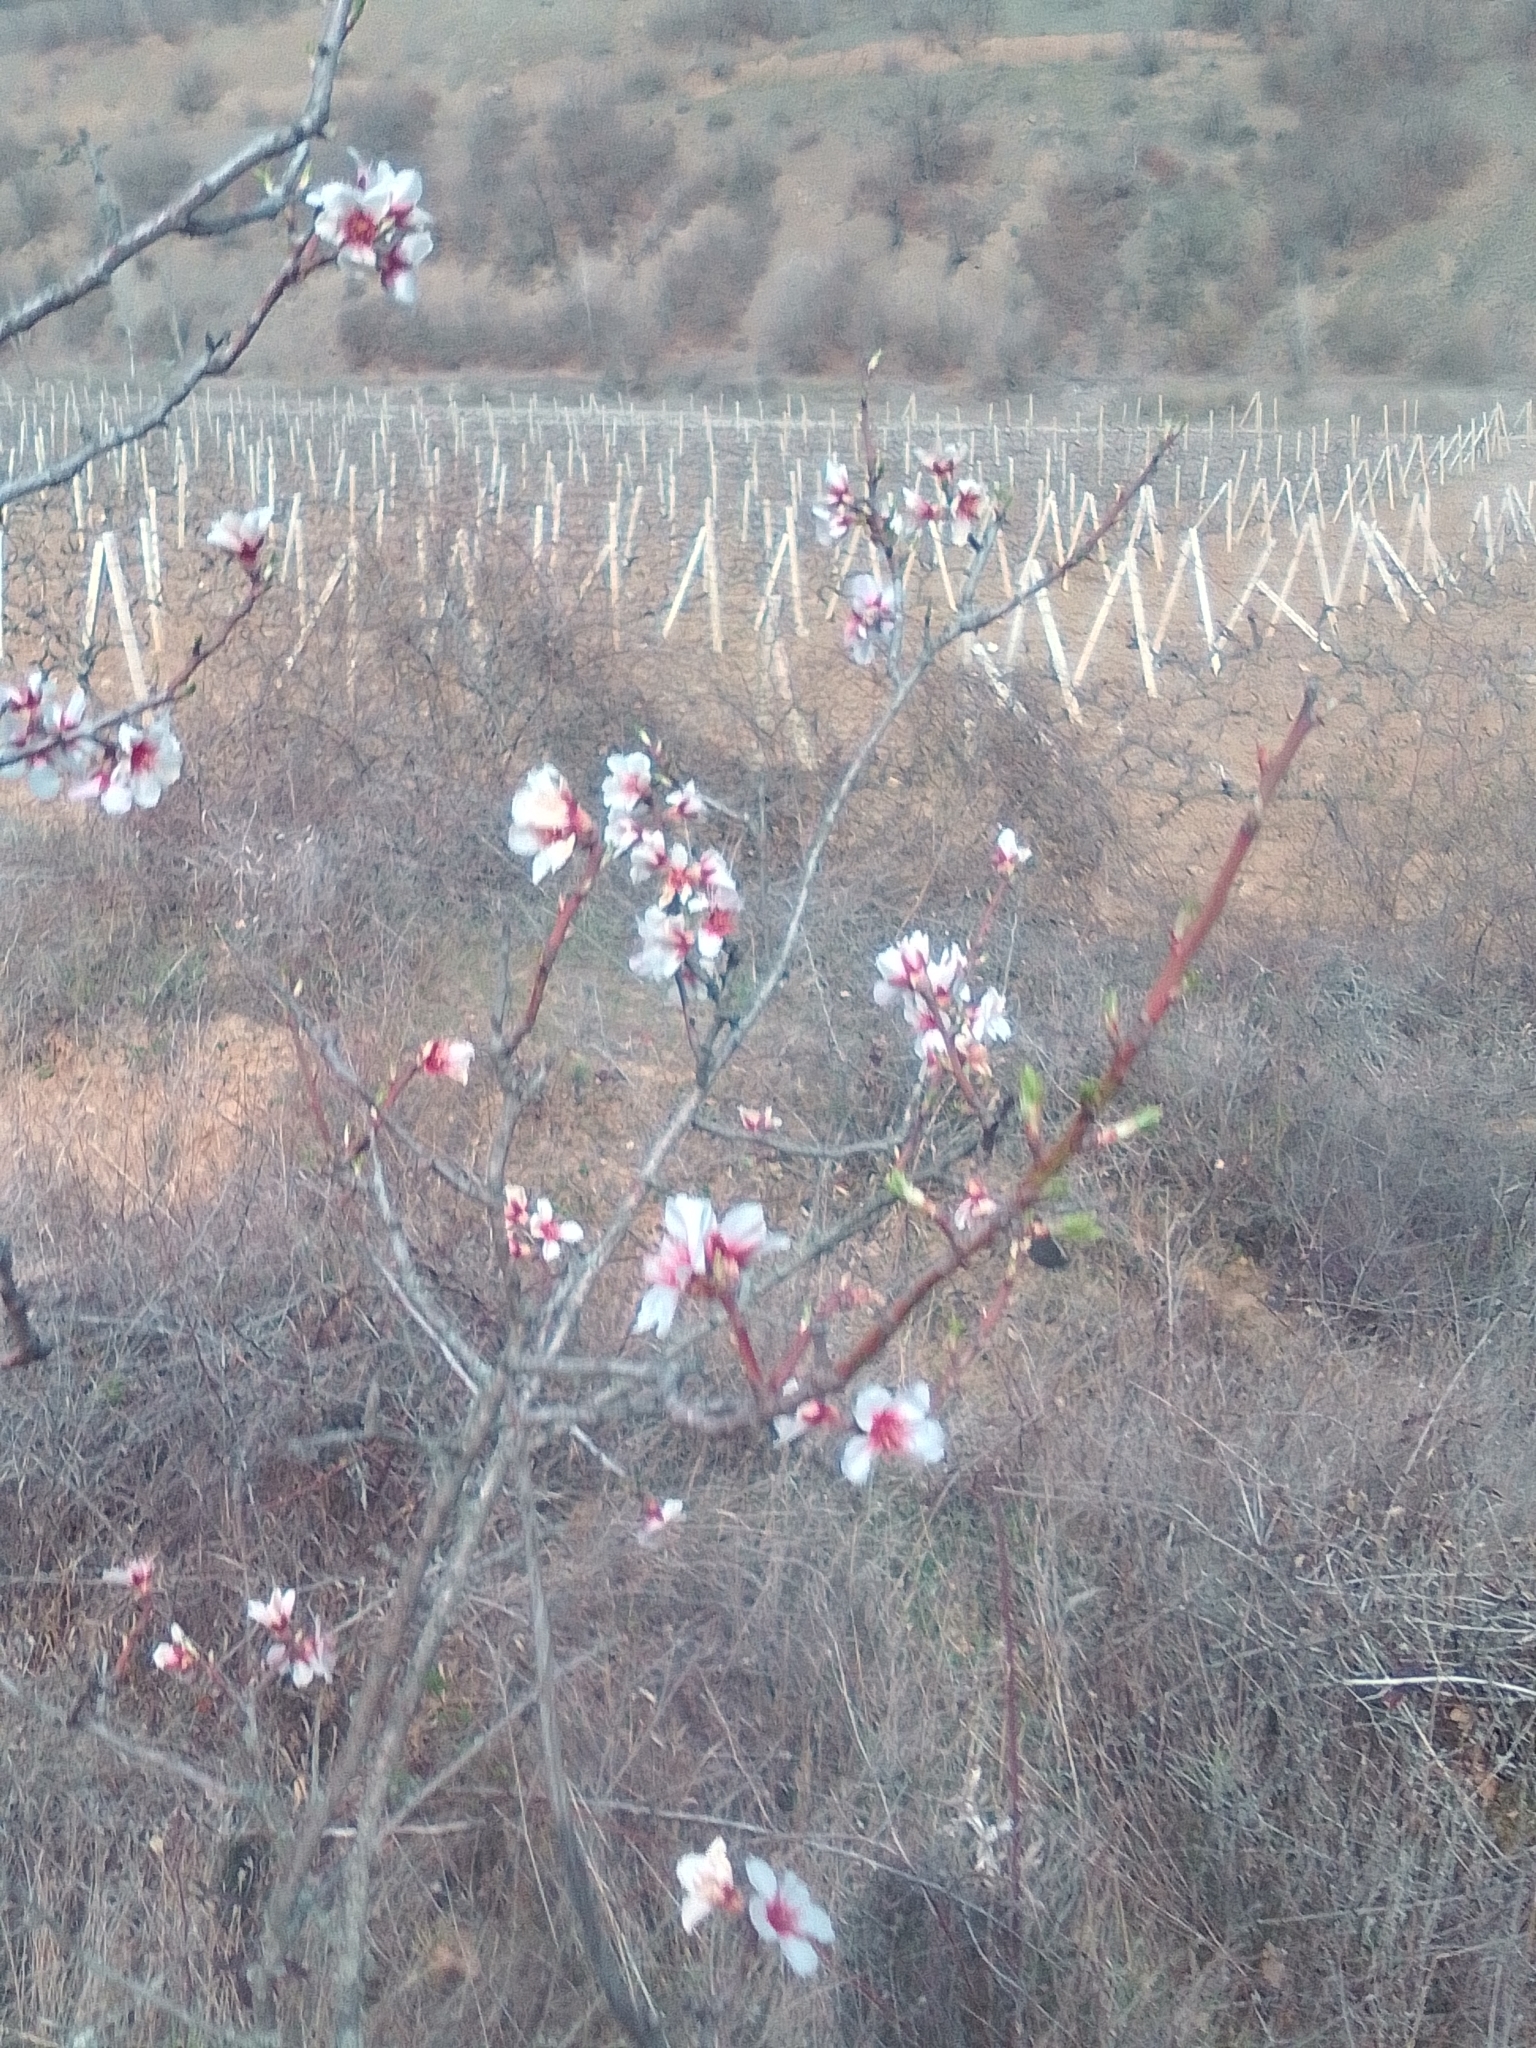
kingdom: Plantae
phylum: Tracheophyta
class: Magnoliopsida
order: Rosales
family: Rosaceae
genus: Prunus
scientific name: Prunus amygdalus
